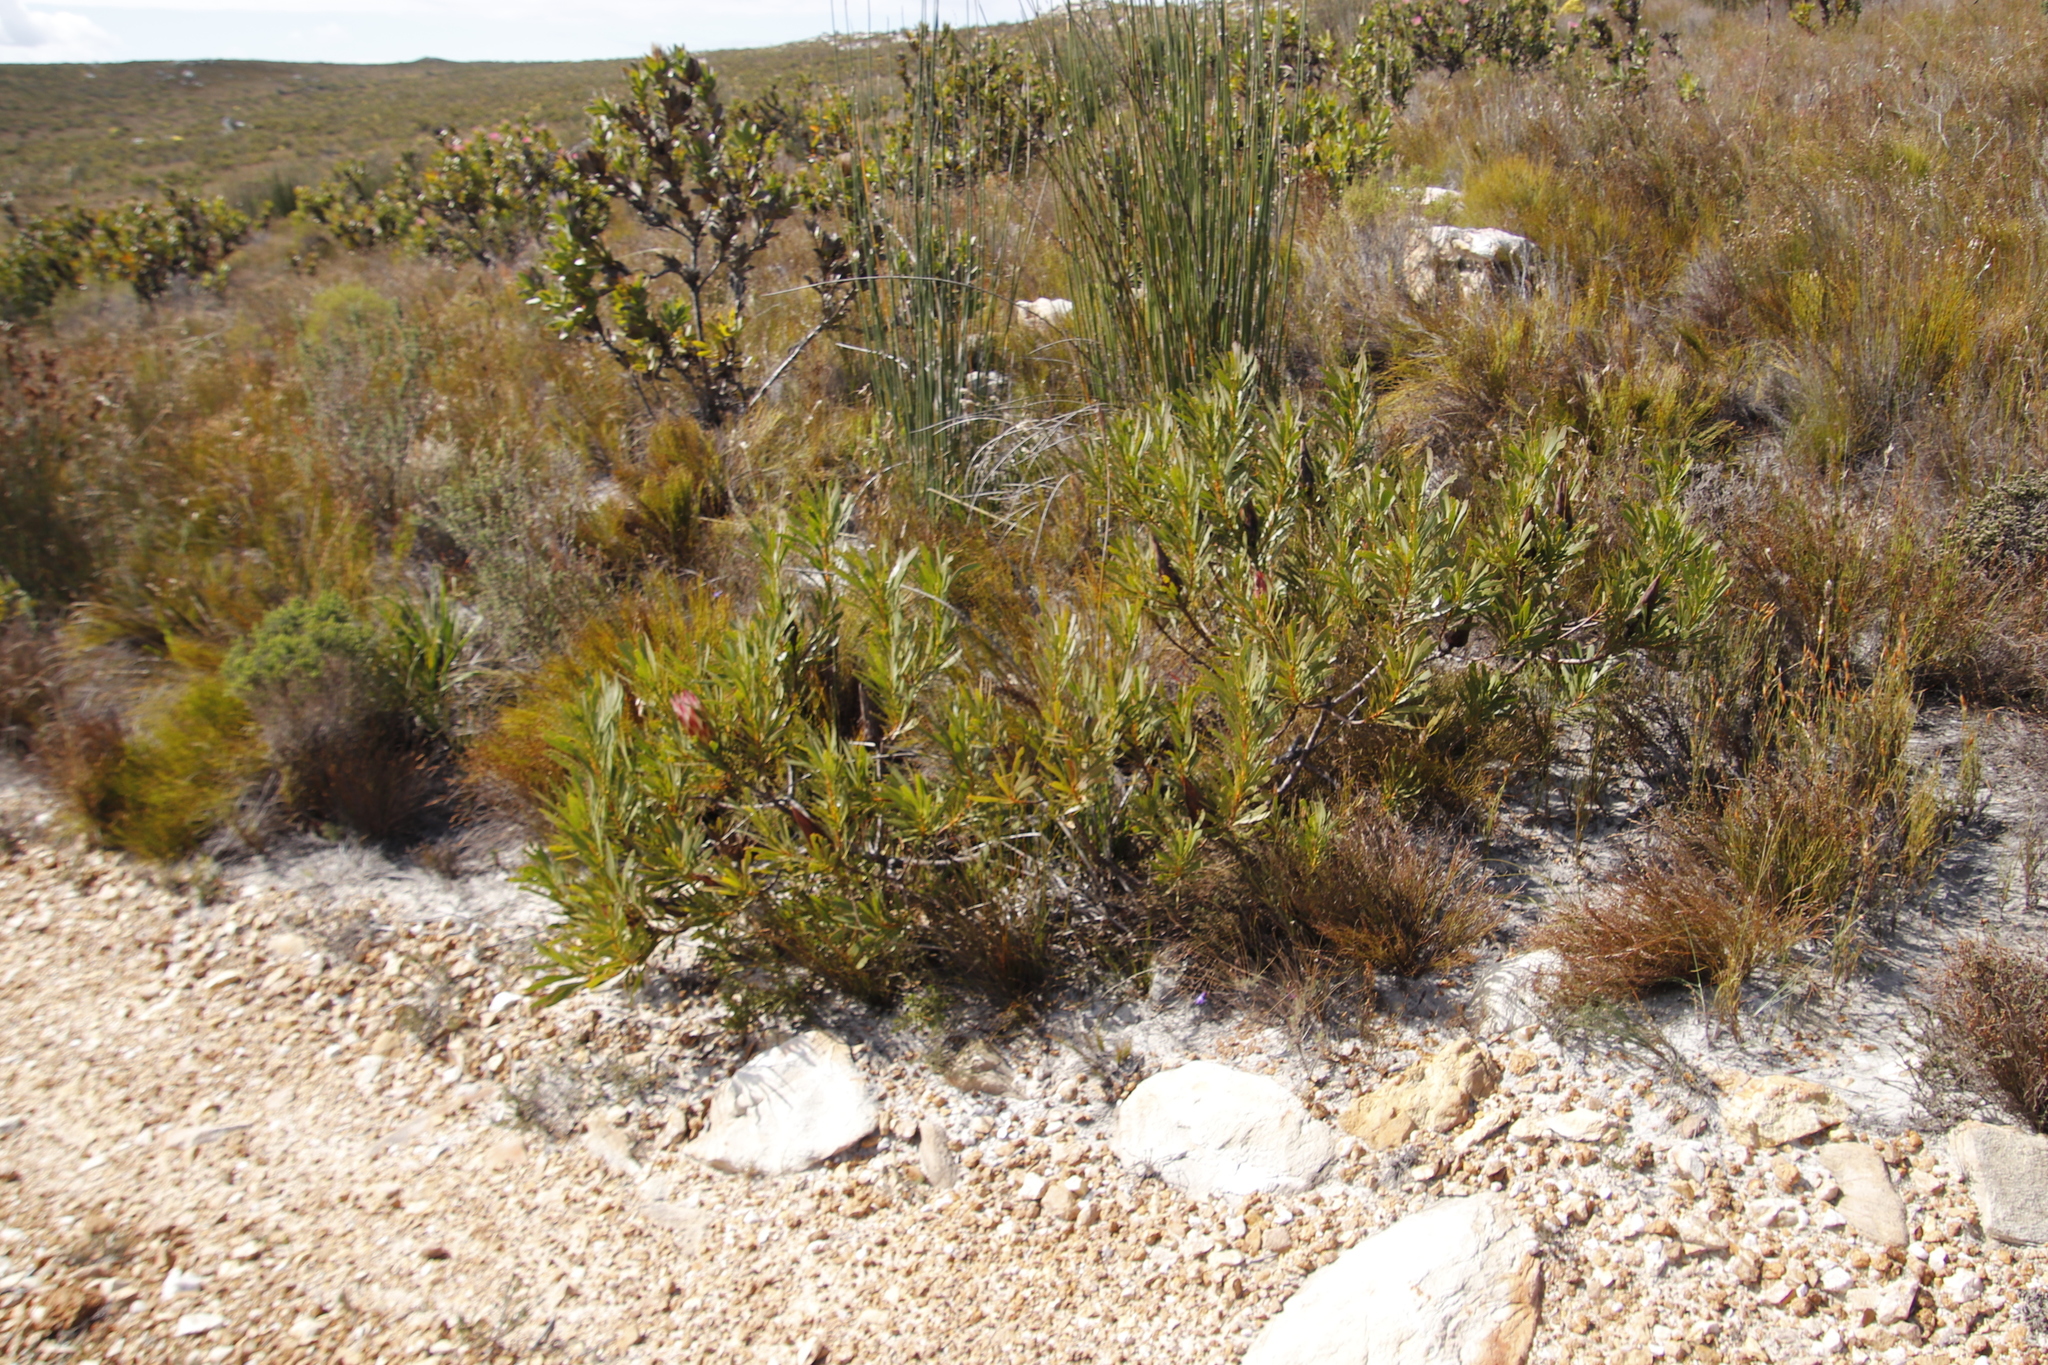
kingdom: Plantae
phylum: Tracheophyta
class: Magnoliopsida
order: Proteales
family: Proteaceae
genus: Protea
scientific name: Protea repens
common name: Sugarbush
